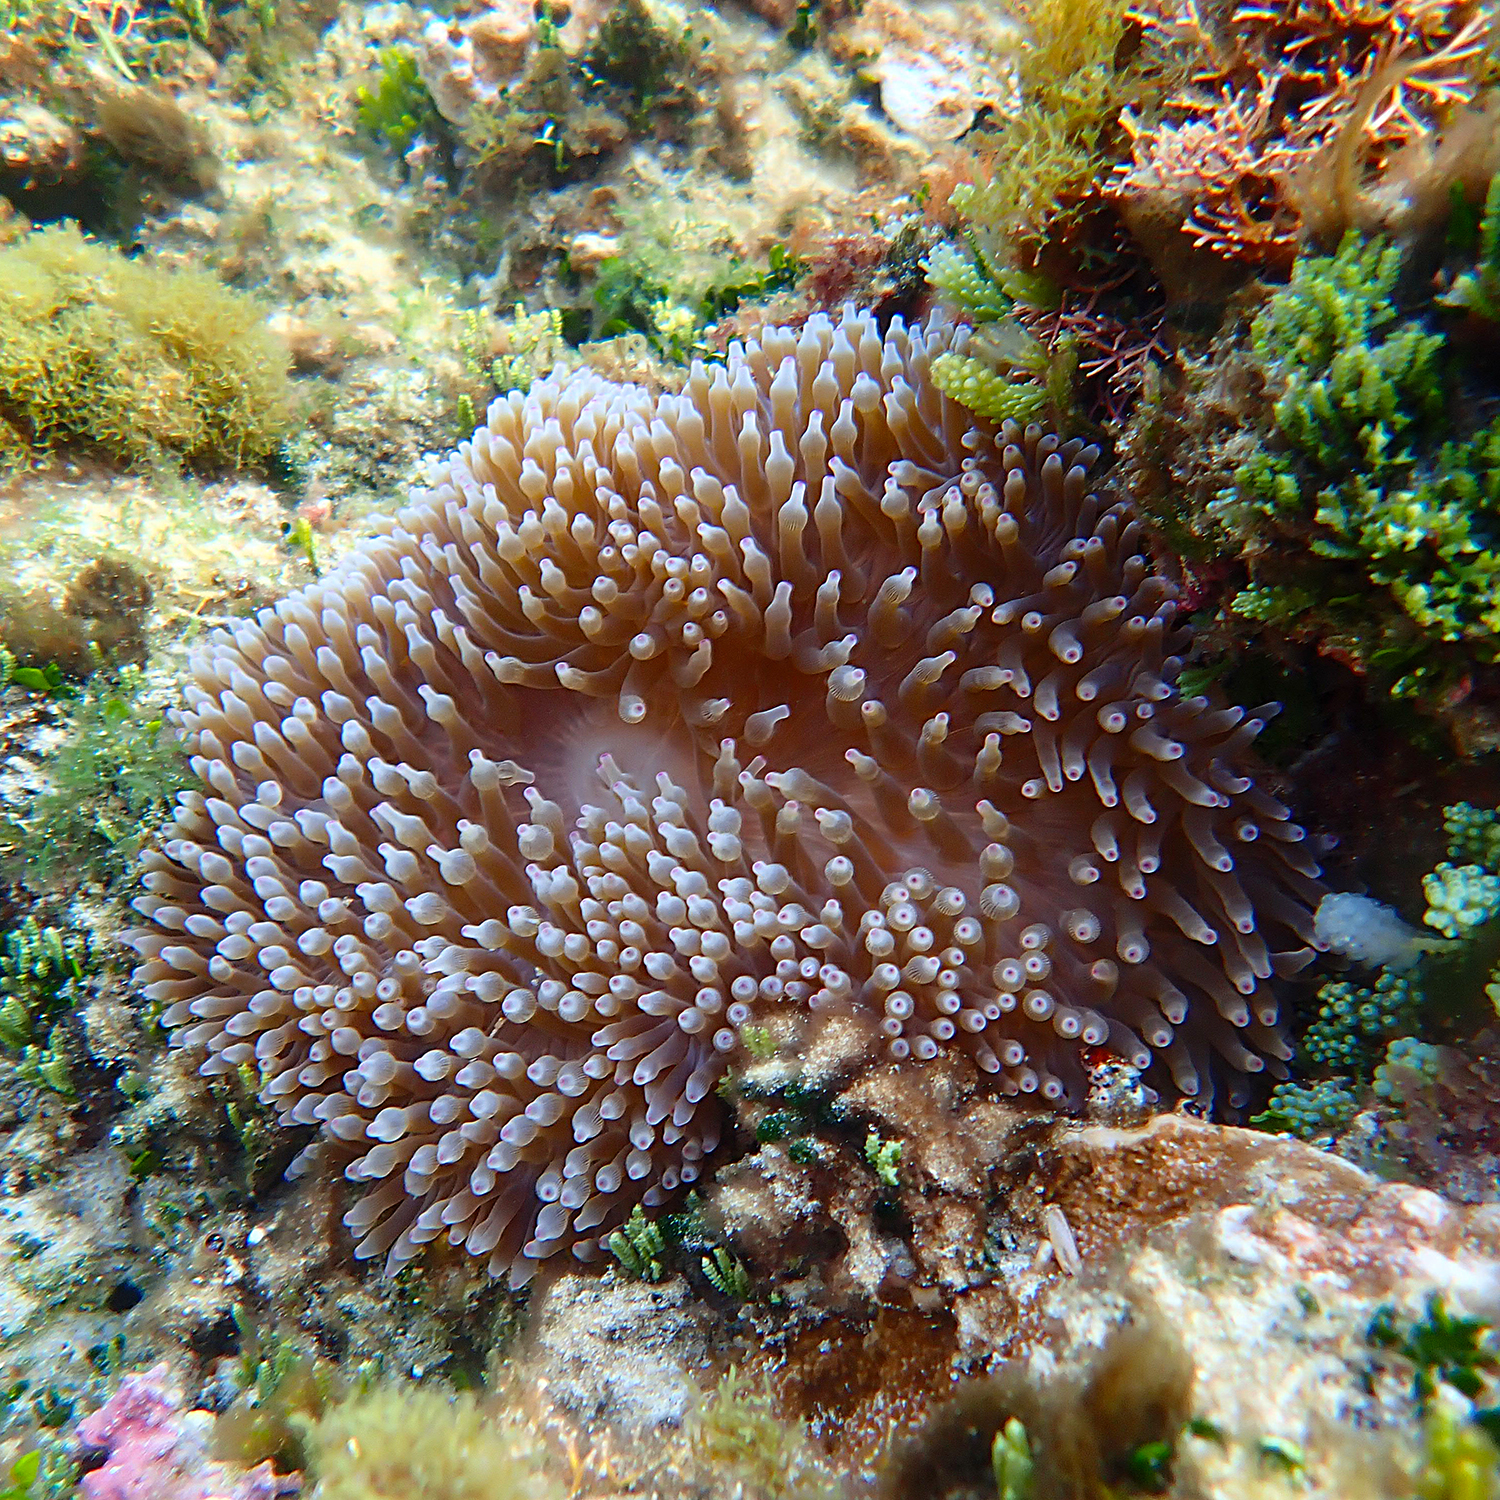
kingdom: Animalia
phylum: Cnidaria
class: Anthozoa
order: Actiniaria
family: Actiniidae
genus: Entacmaea
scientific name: Entacmaea quadricolor
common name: Bulb tentacle sea anemone
